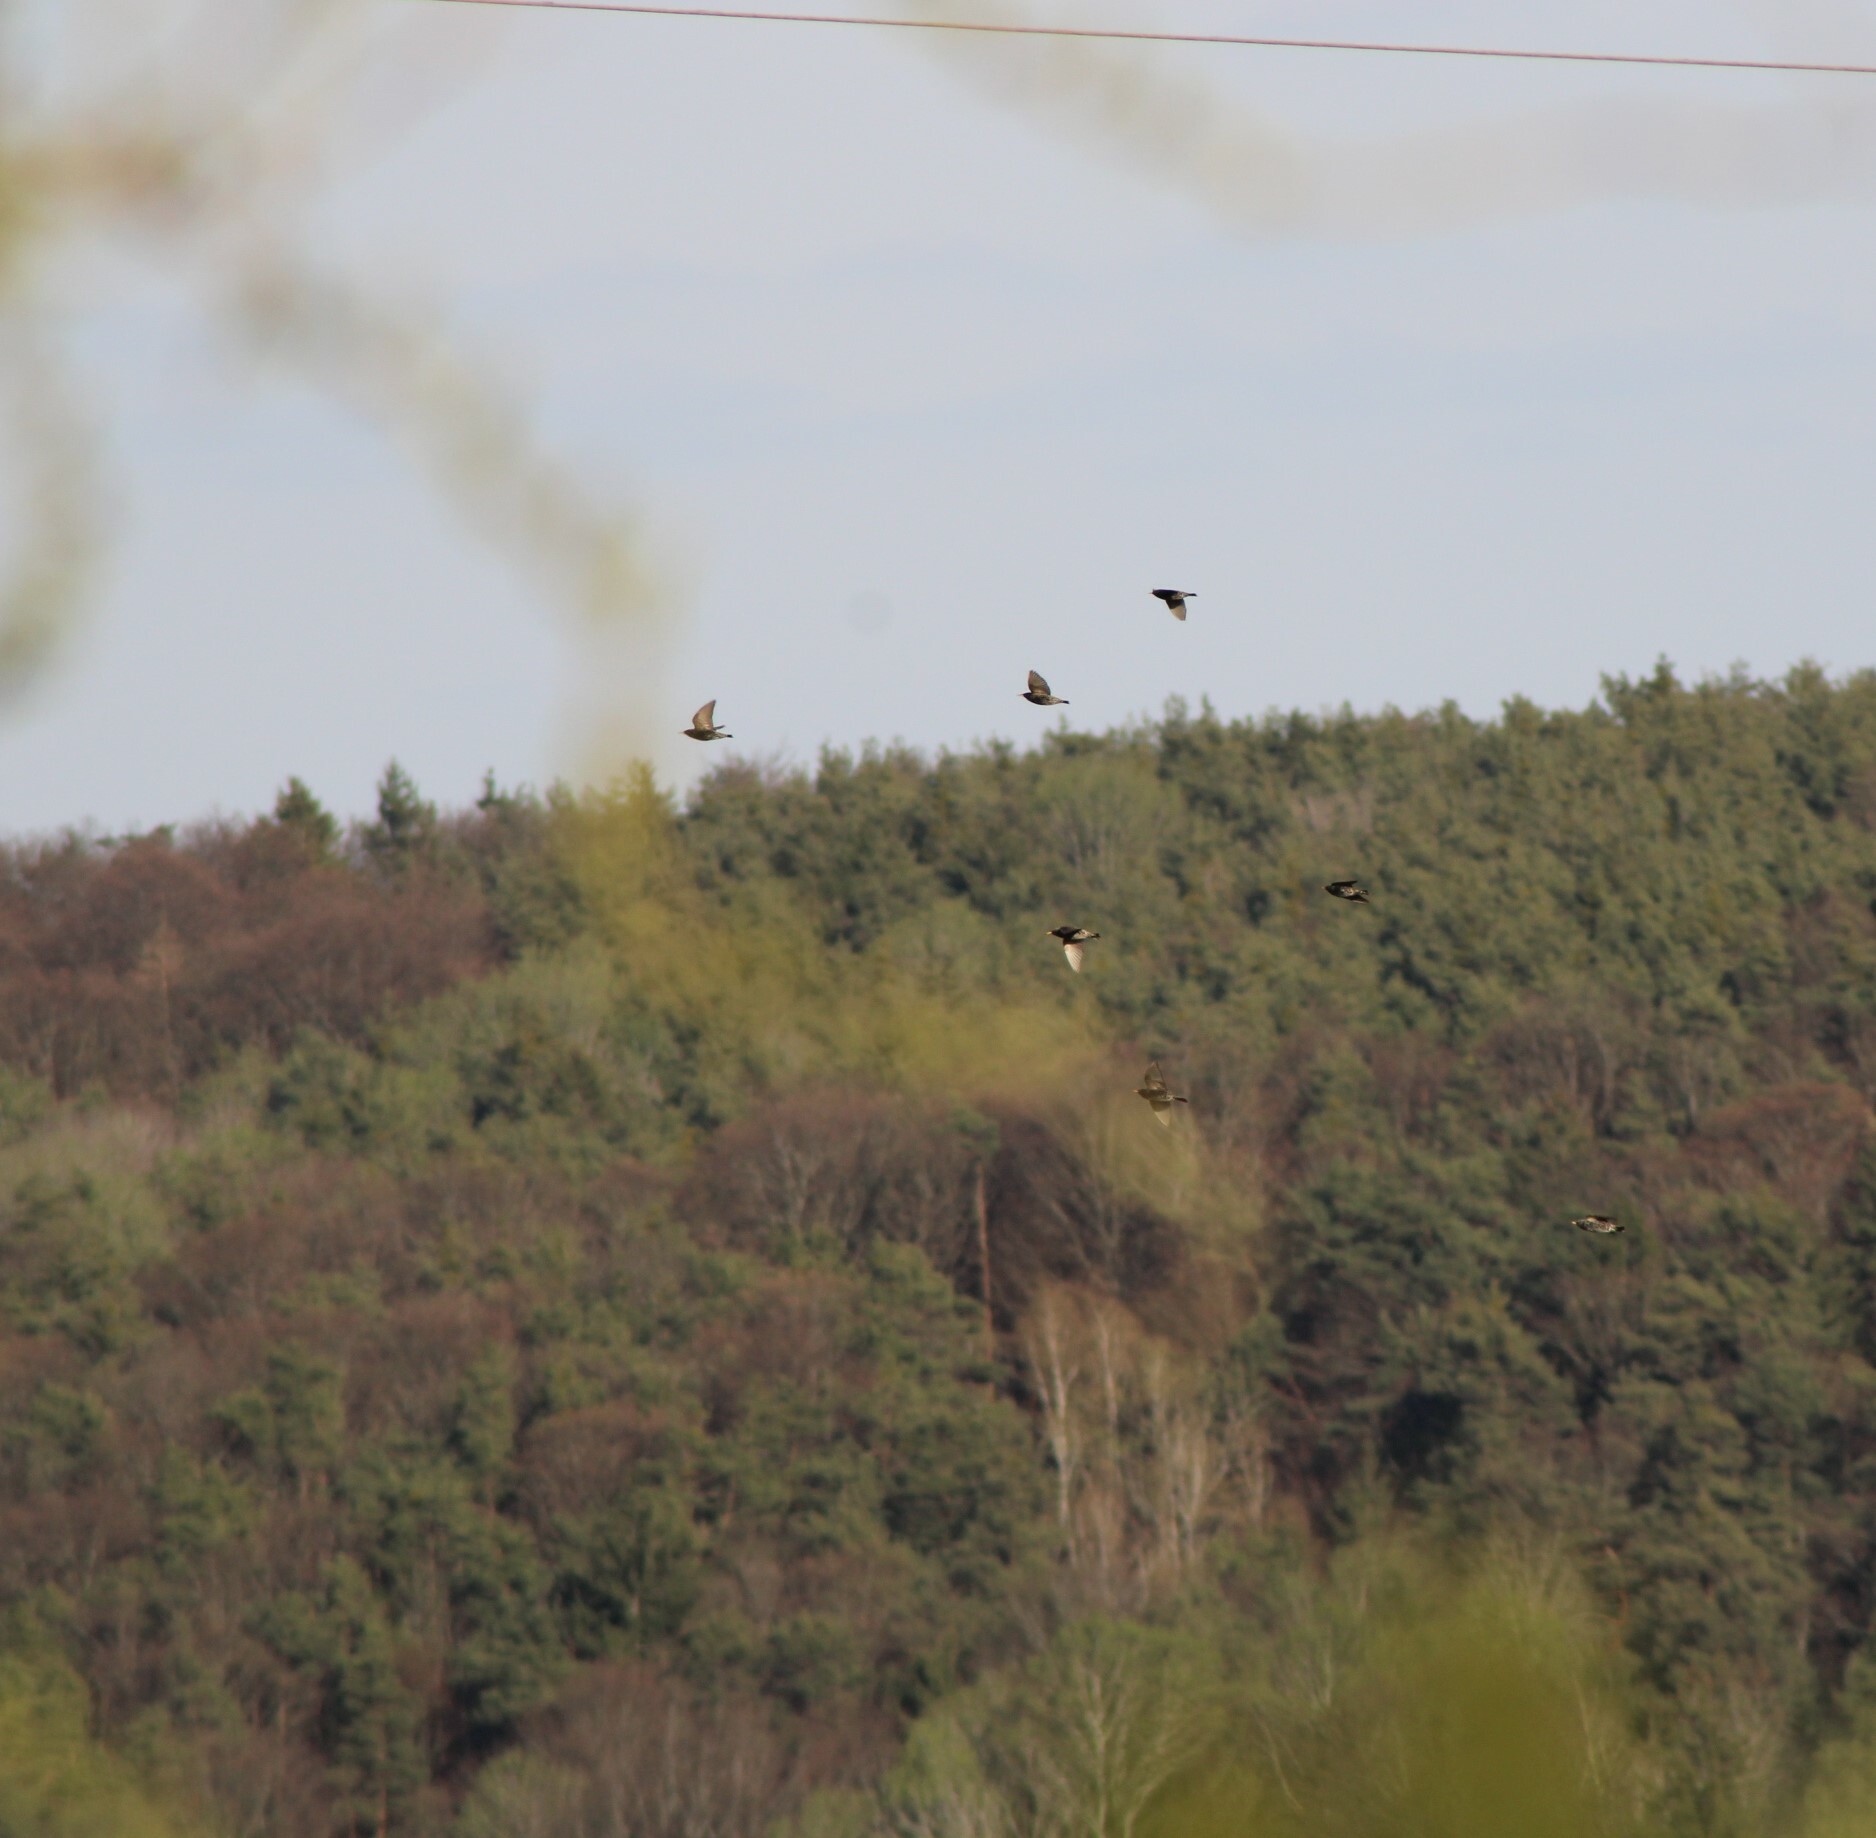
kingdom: Animalia
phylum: Chordata
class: Aves
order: Passeriformes
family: Sturnidae
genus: Sturnus
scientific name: Sturnus vulgaris
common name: Common starling
